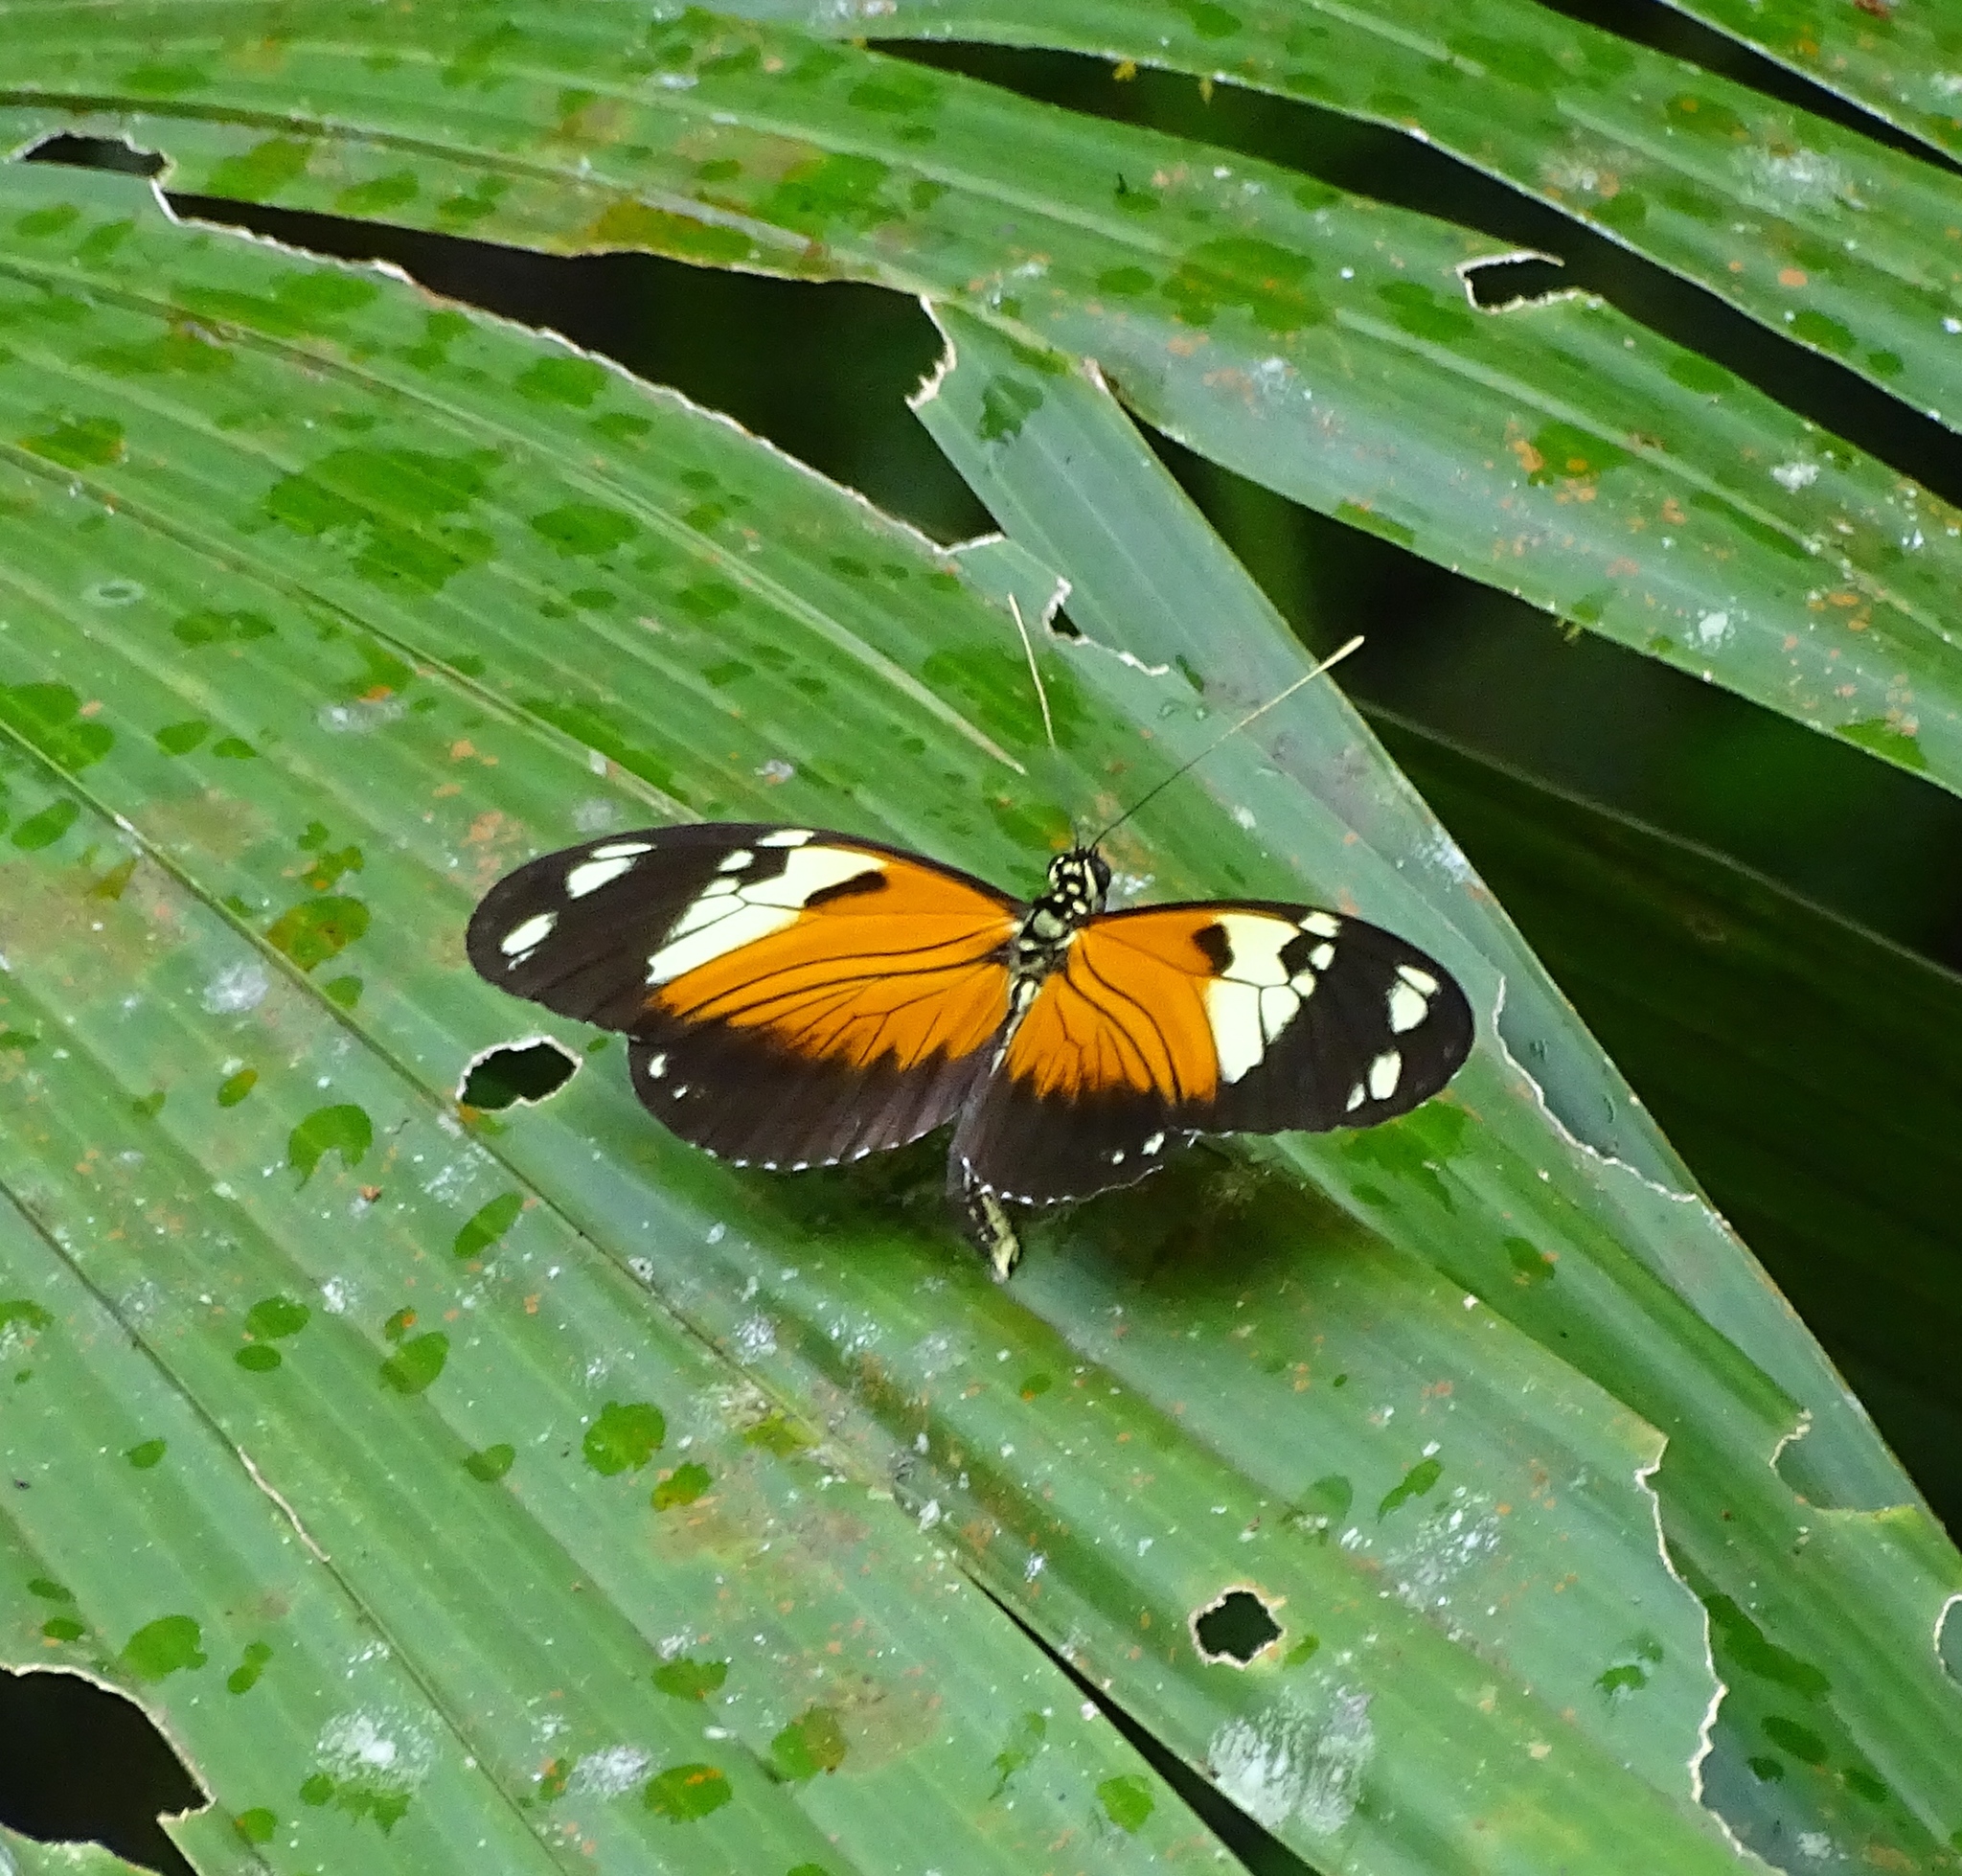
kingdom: Animalia
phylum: Arthropoda
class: Insecta
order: Lepidoptera
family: Nymphalidae
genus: Heliconius
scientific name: Heliconius ismenius
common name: Ismenius tiger
